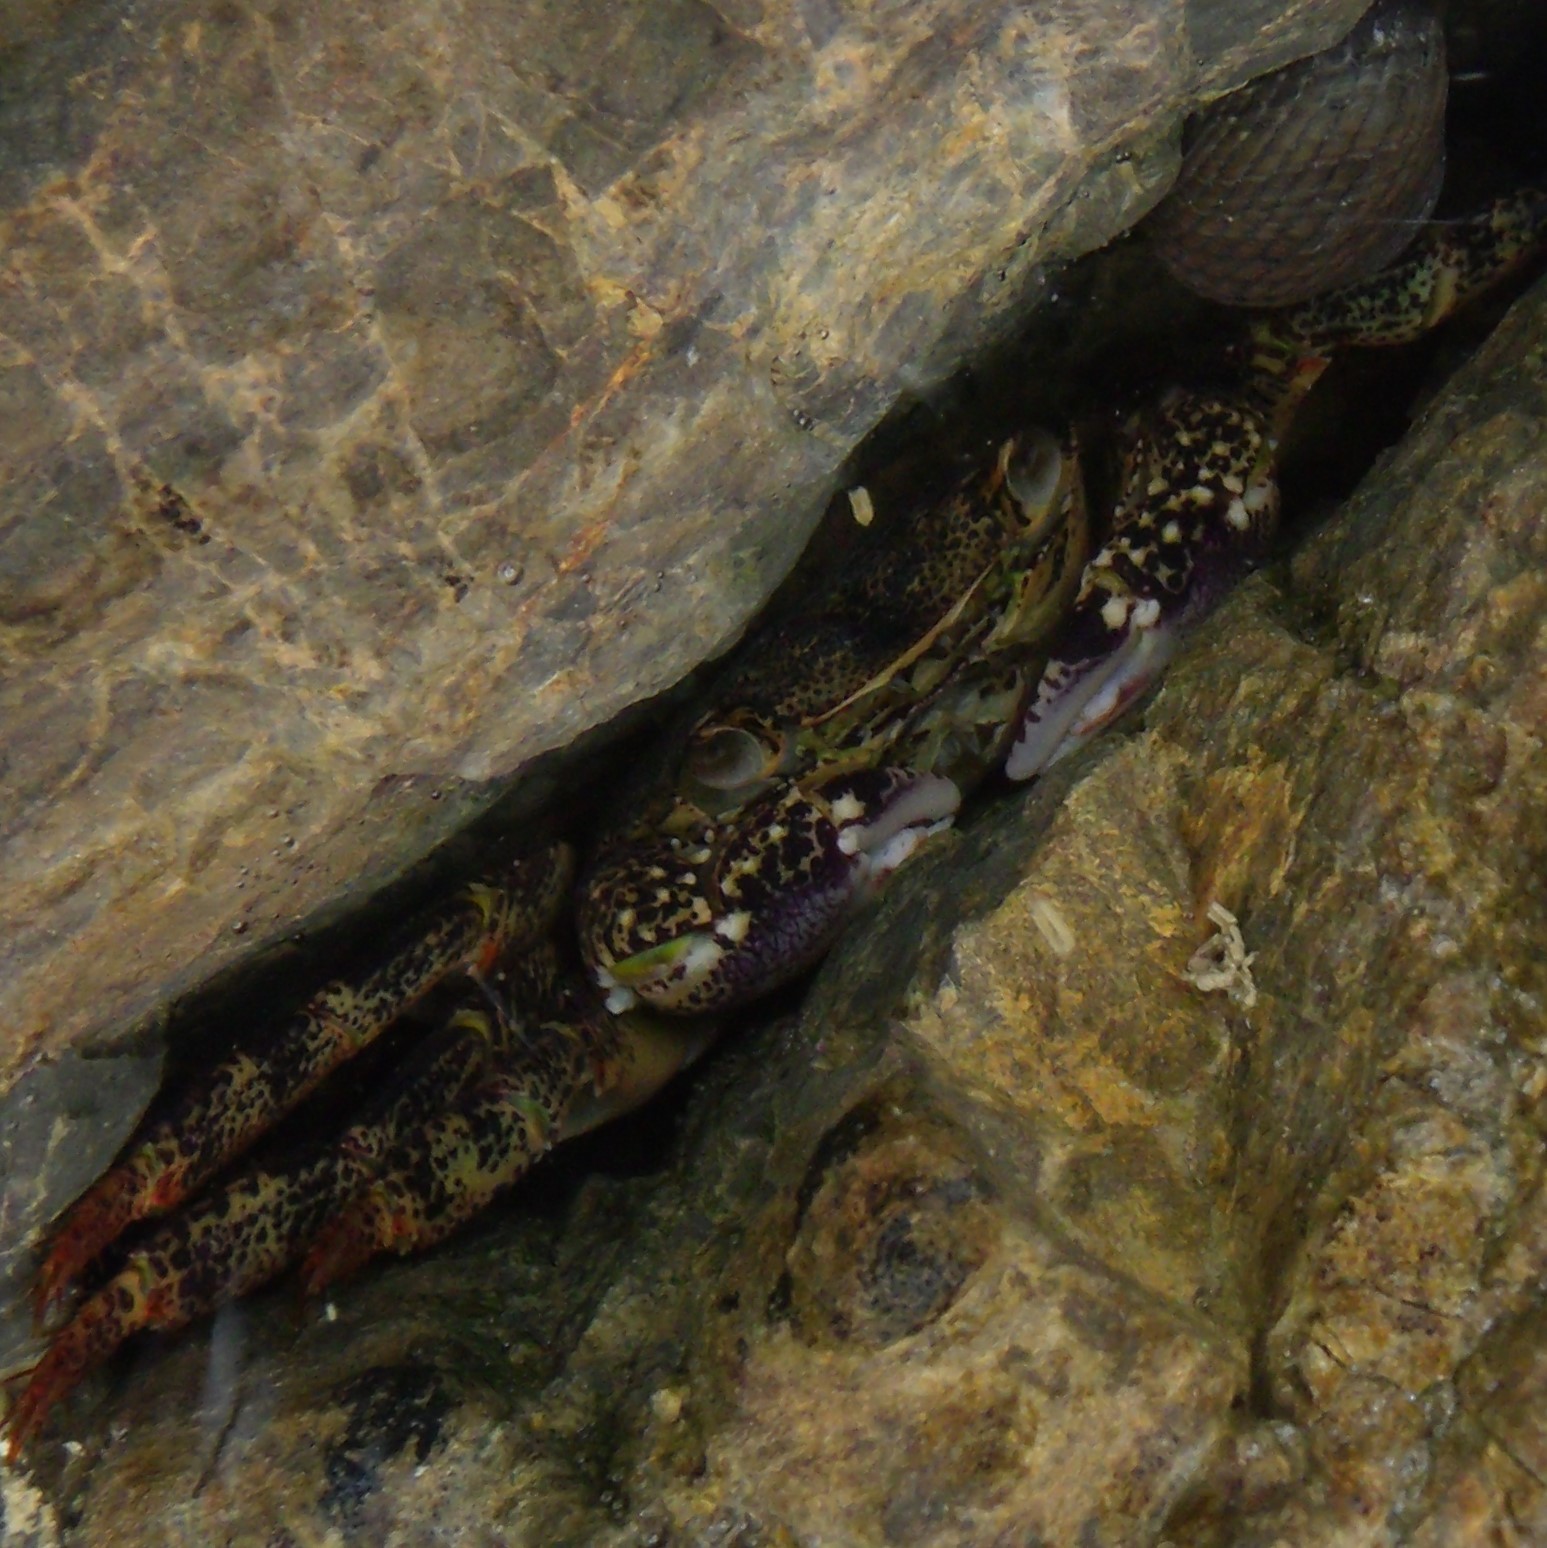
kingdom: Animalia
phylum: Arthropoda
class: Malacostraca
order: Decapoda
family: Grapsidae
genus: Leptograpsus
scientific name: Leptograpsus variegatus
